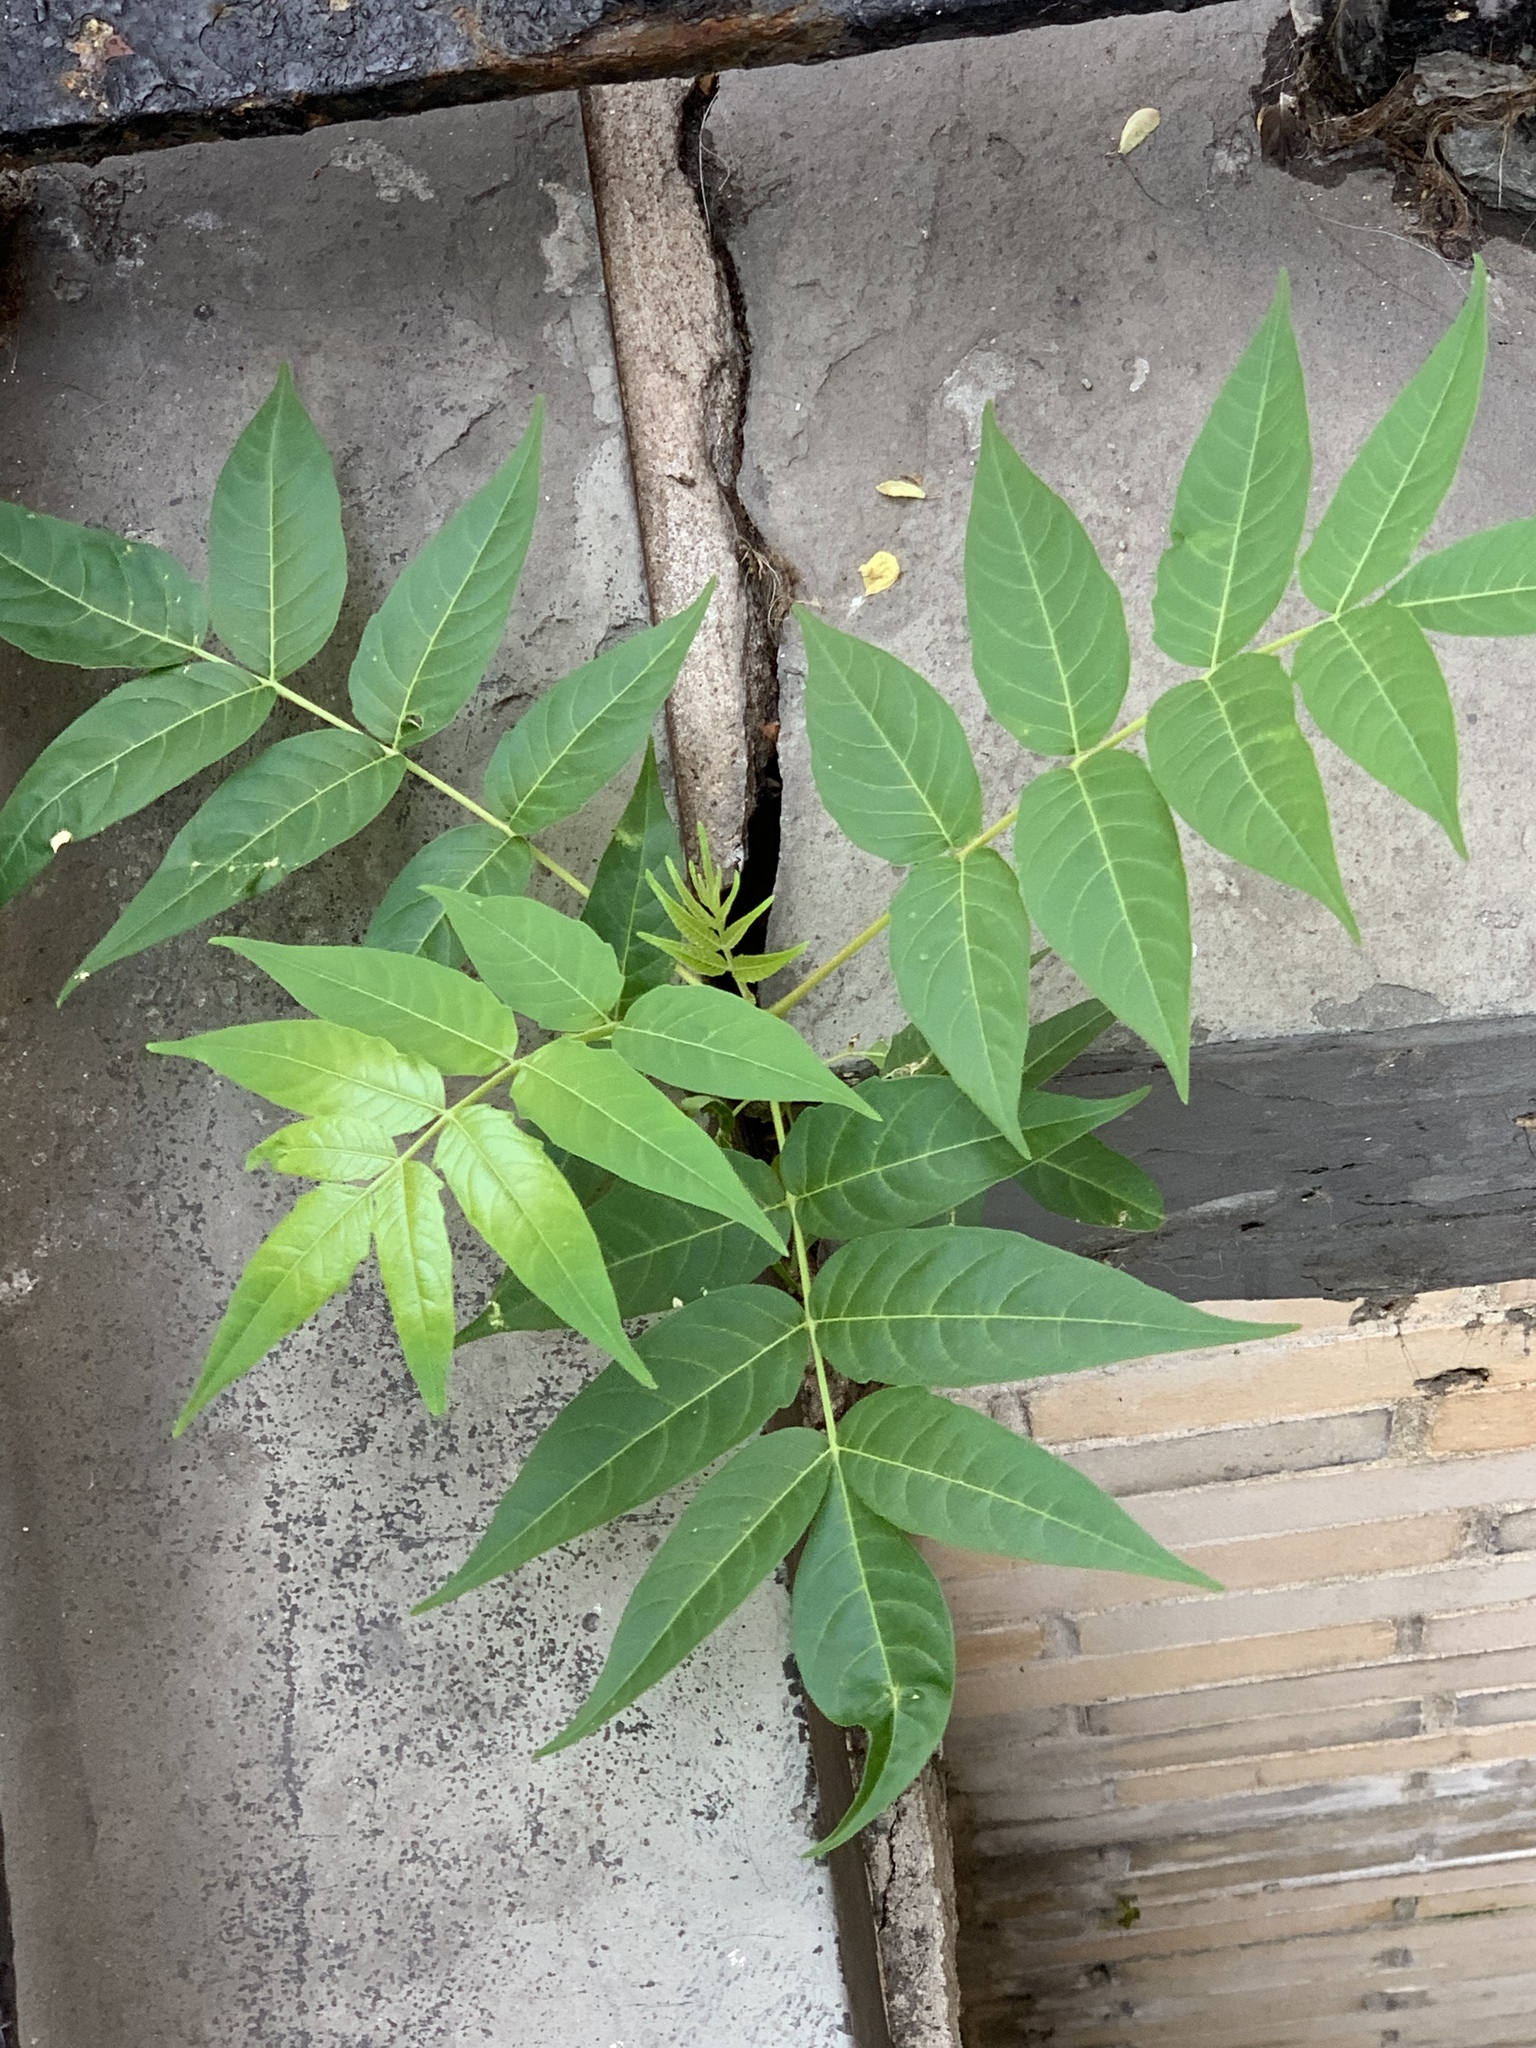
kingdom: Plantae
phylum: Tracheophyta
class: Magnoliopsida
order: Sapindales
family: Simaroubaceae
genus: Ailanthus
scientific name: Ailanthus altissima
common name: Tree-of-heaven
